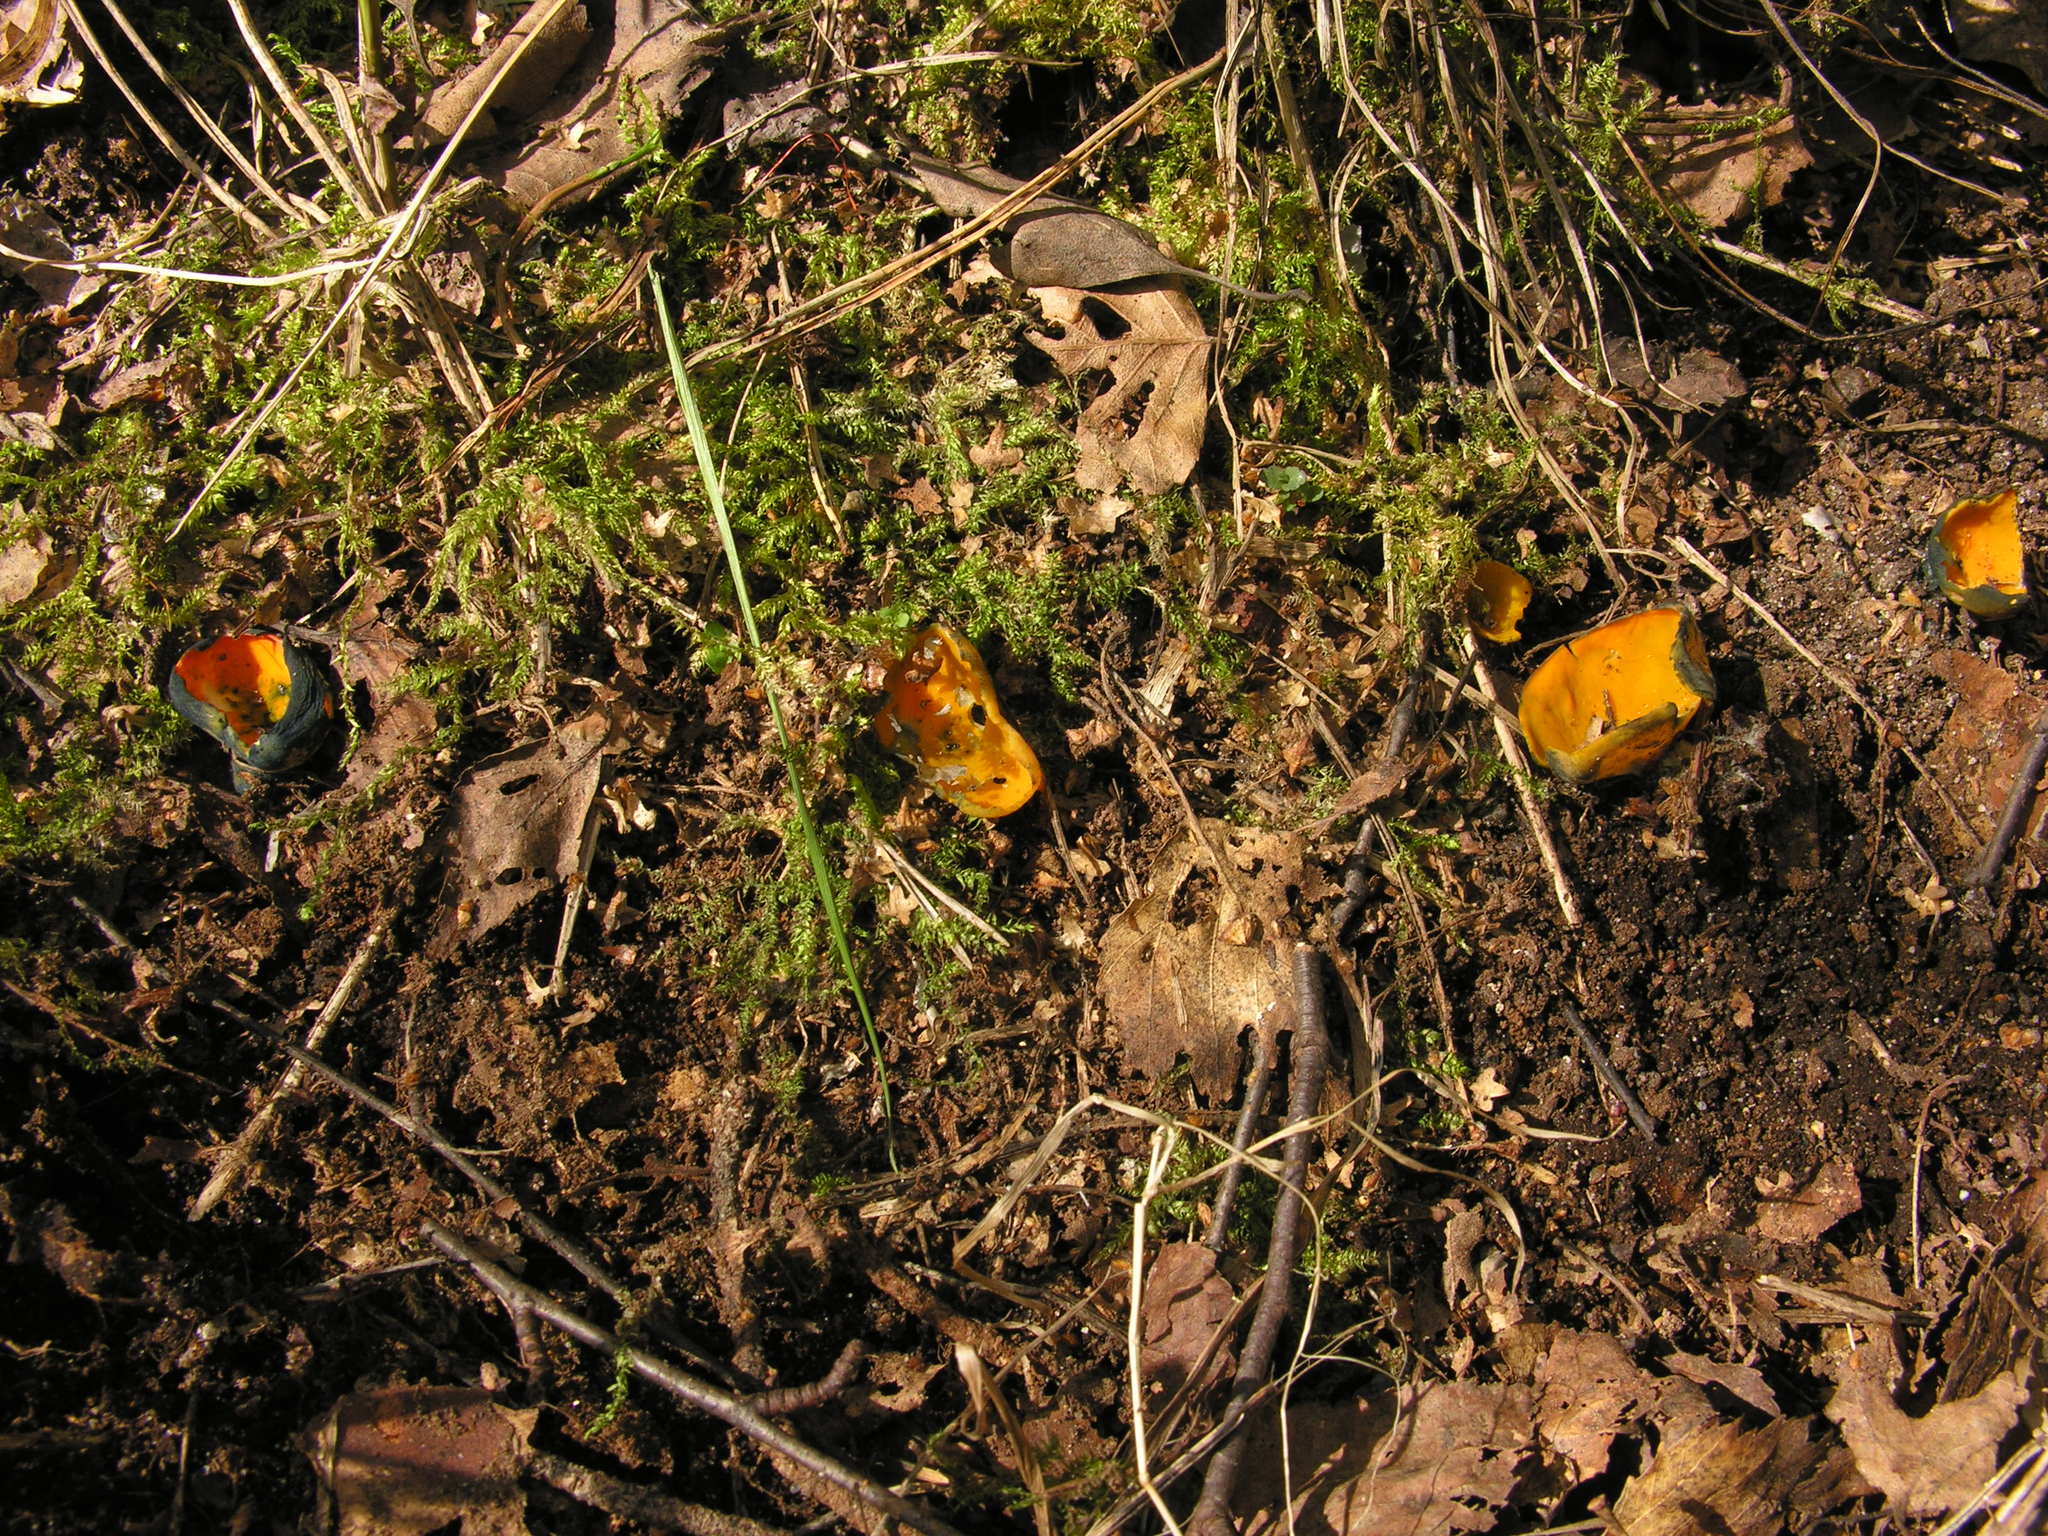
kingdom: Fungi
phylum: Ascomycota
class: Pezizomycetes
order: Pezizales
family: Caloscyphaceae
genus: Caloscypha
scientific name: Caloscypha fulgens
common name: Golden cup
